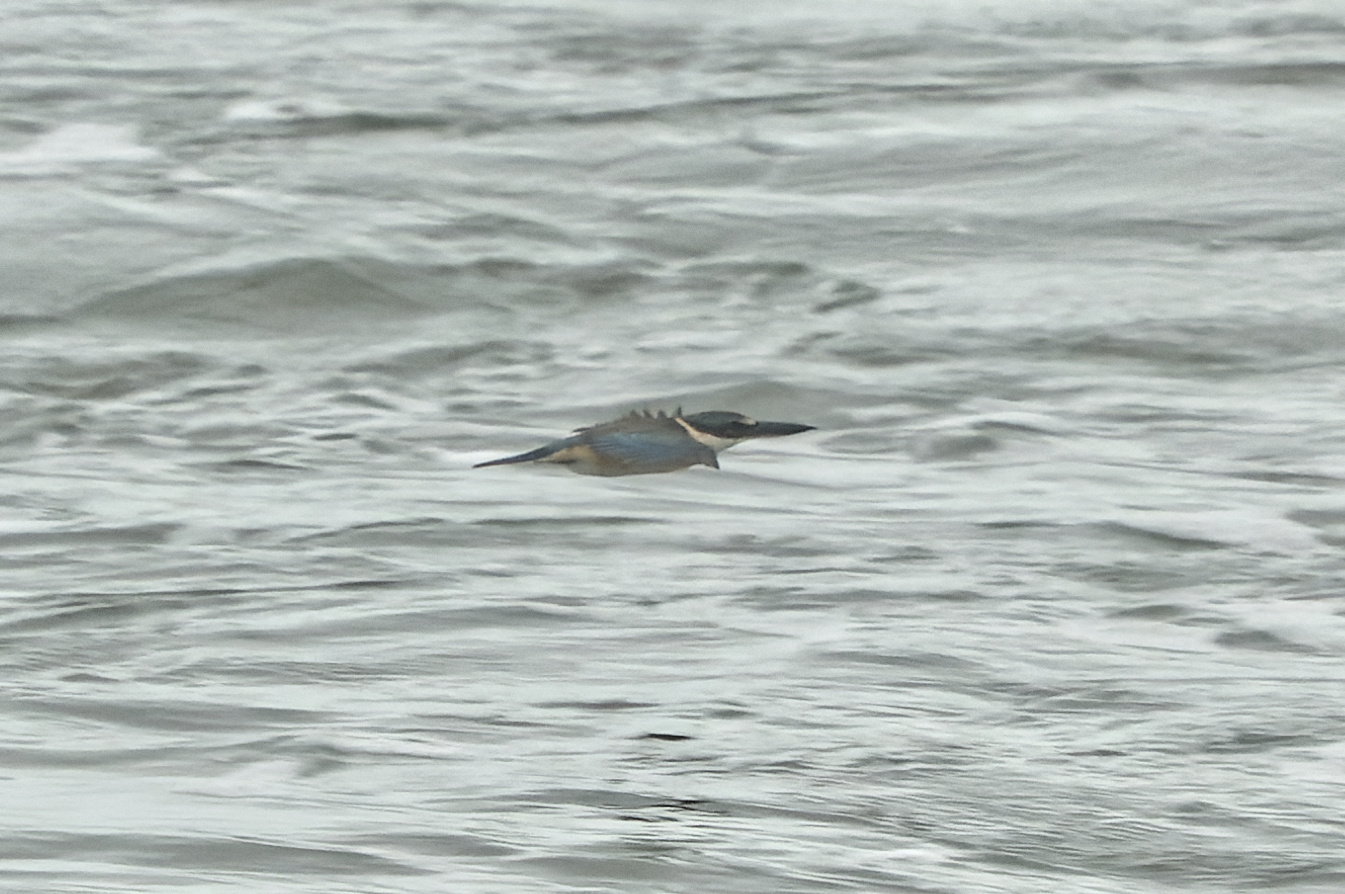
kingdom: Animalia
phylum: Chordata
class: Aves
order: Coraciiformes
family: Alcedinidae
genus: Todiramphus
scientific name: Todiramphus sanctus
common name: Sacred kingfisher
